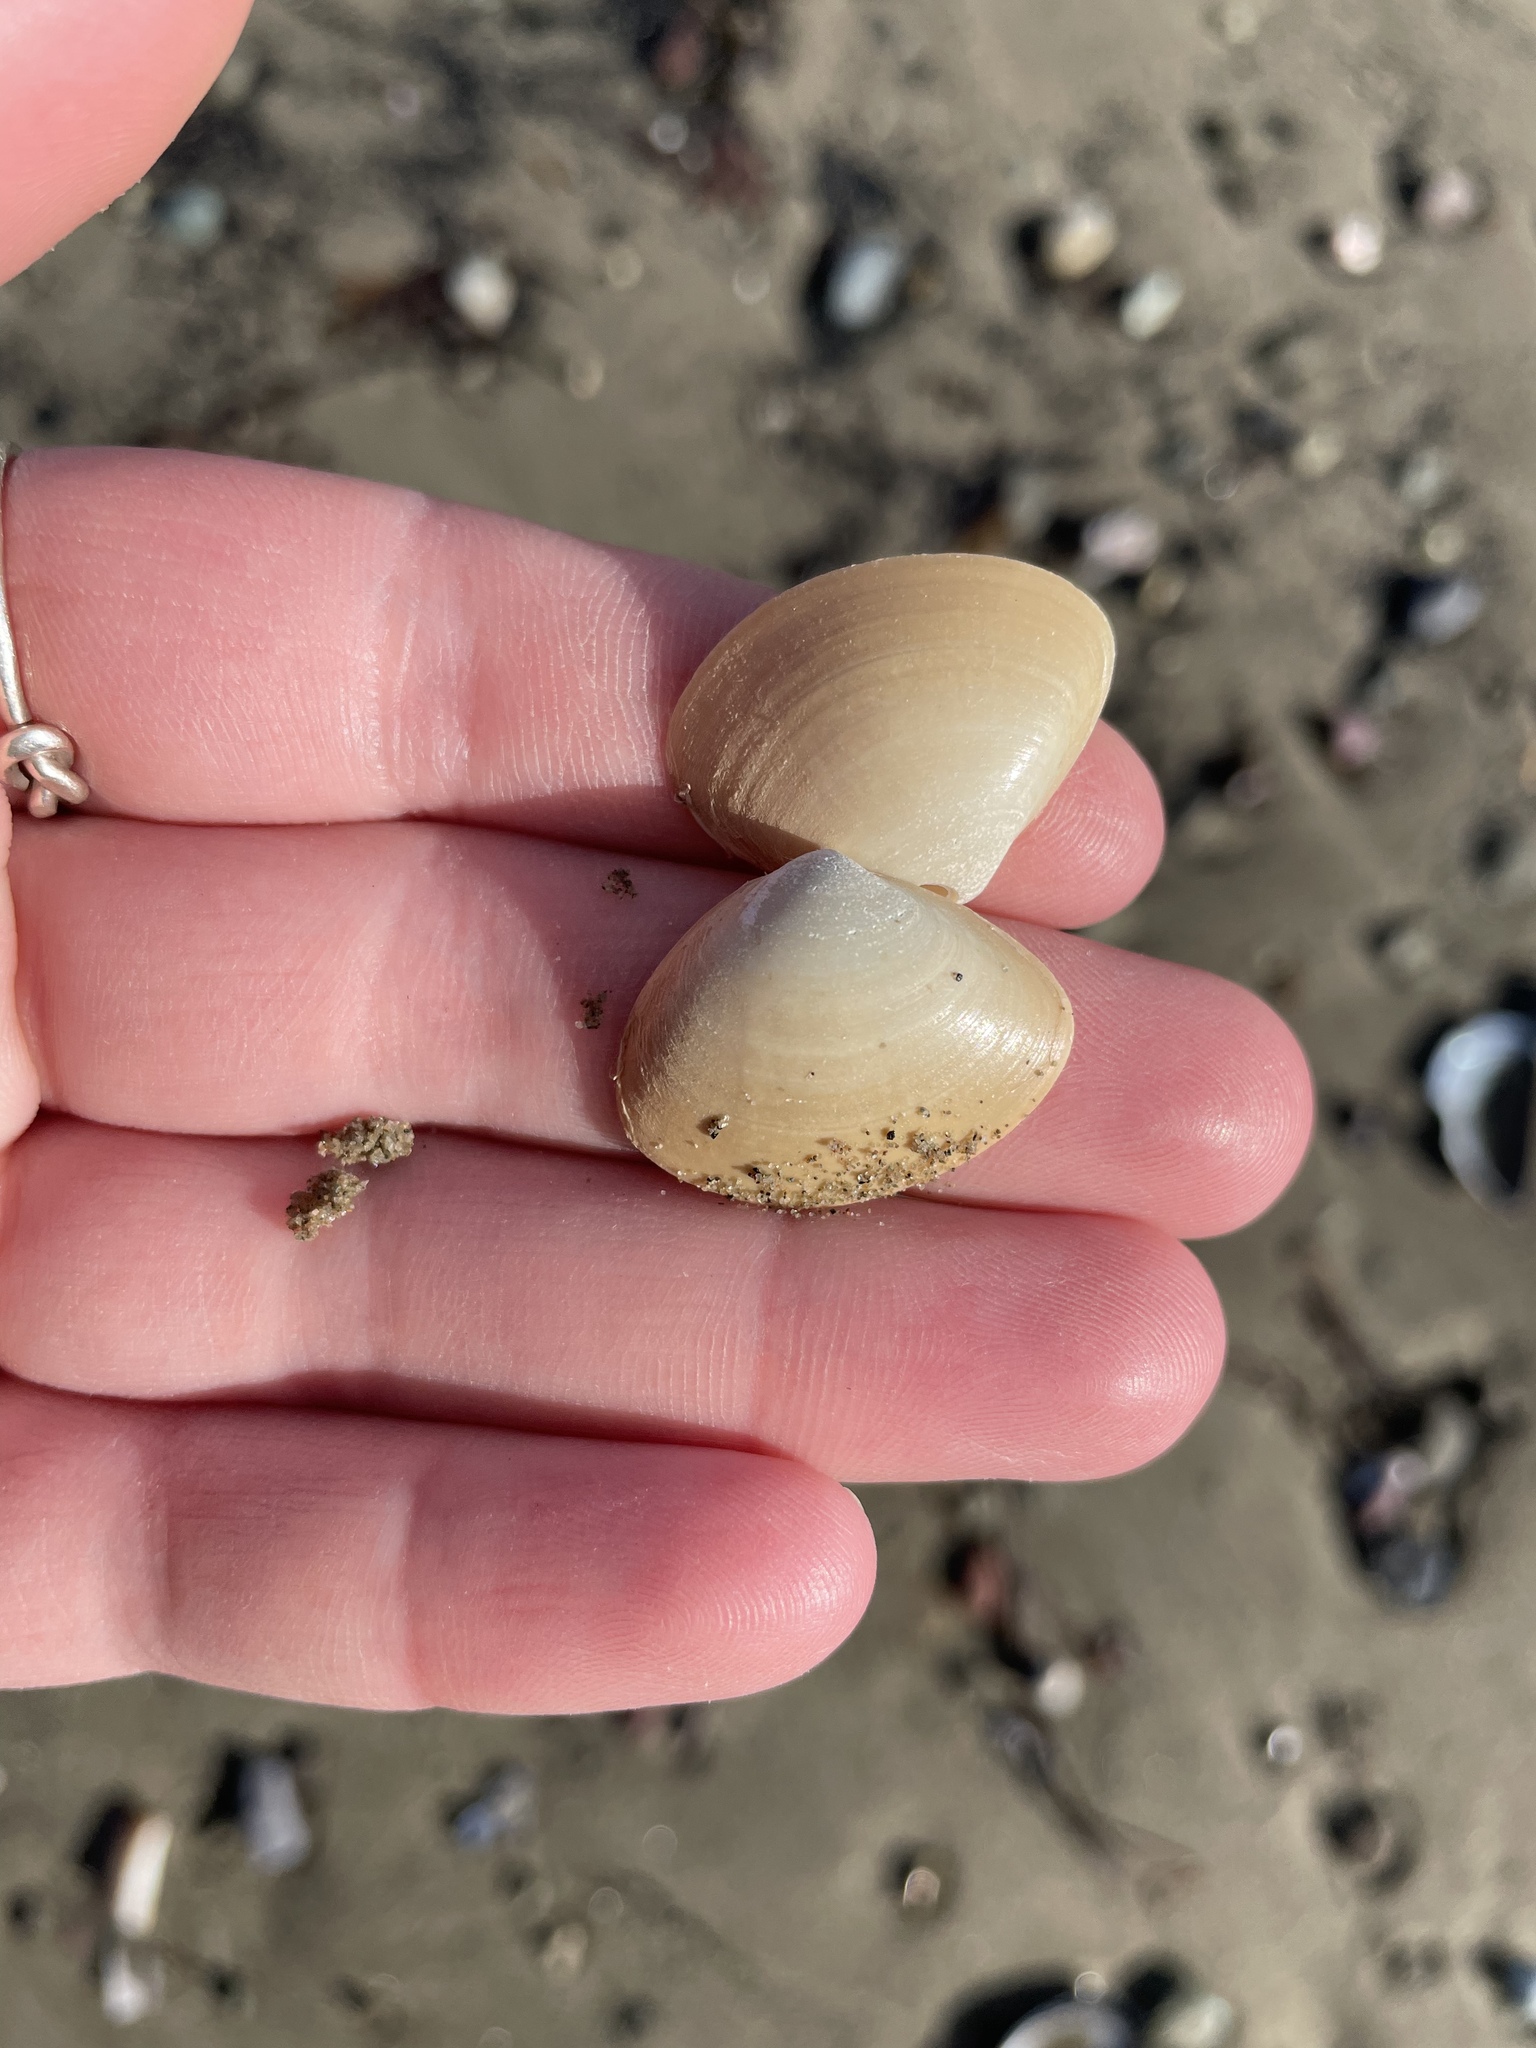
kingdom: Animalia
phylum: Mollusca
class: Bivalvia
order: Venerida
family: Mactridae
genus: Spisula
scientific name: Spisula solidissima
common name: Atlantic surf clam
